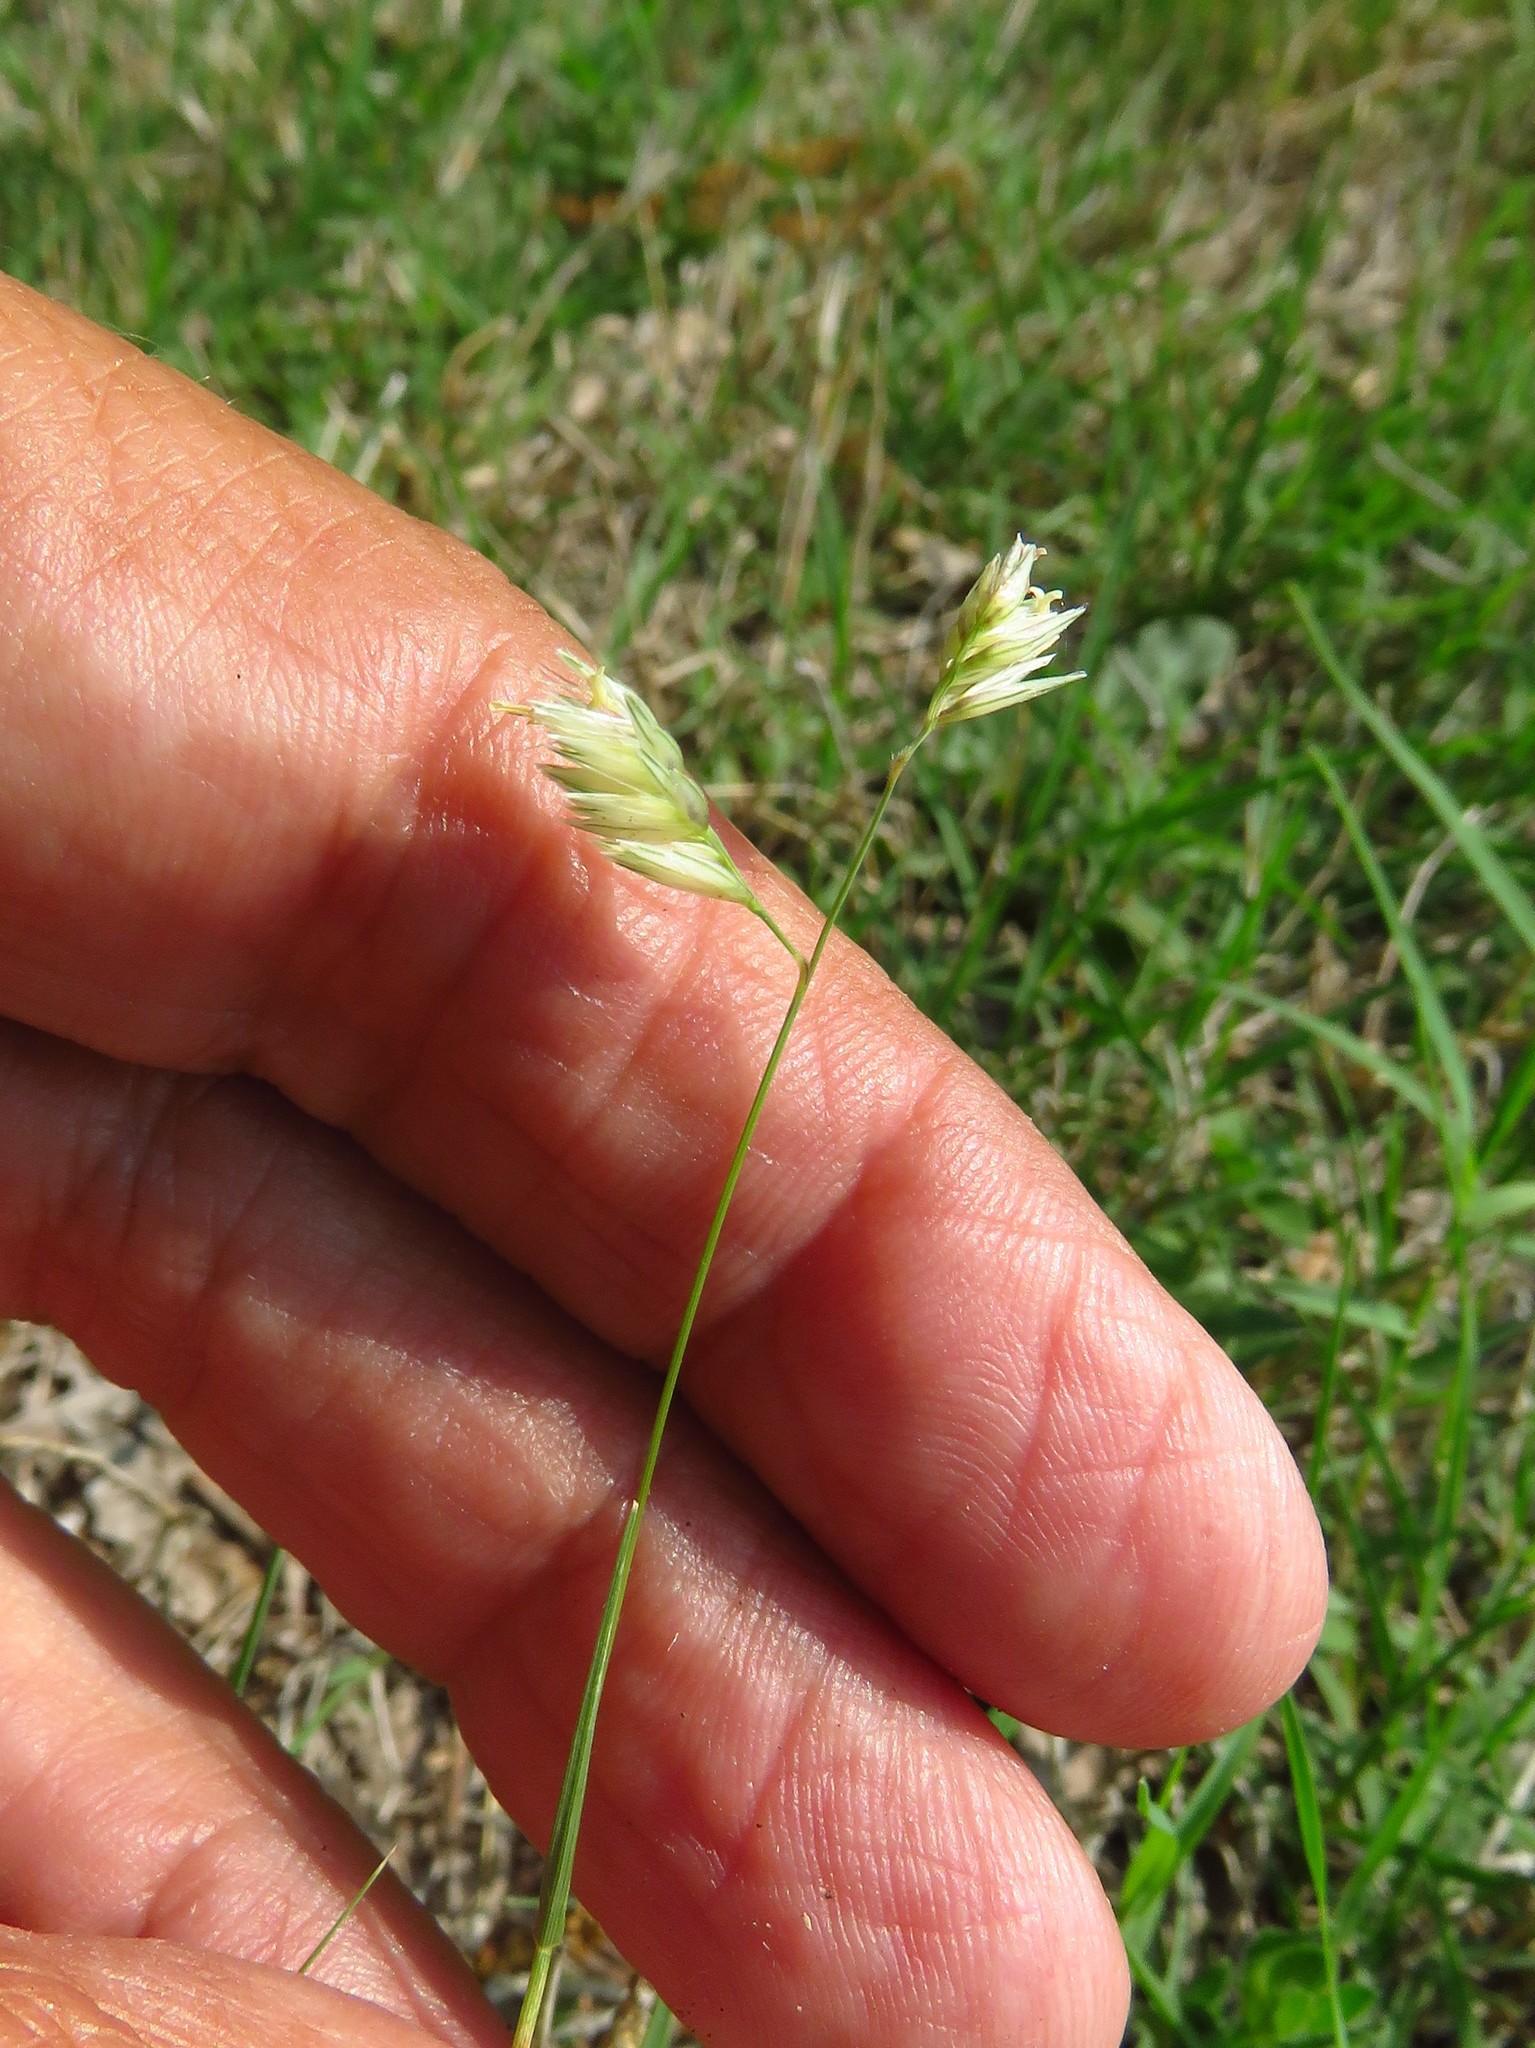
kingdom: Plantae
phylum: Tracheophyta
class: Liliopsida
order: Poales
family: Poaceae
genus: Bouteloua
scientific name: Bouteloua dactyloides
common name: Buffalo grass
